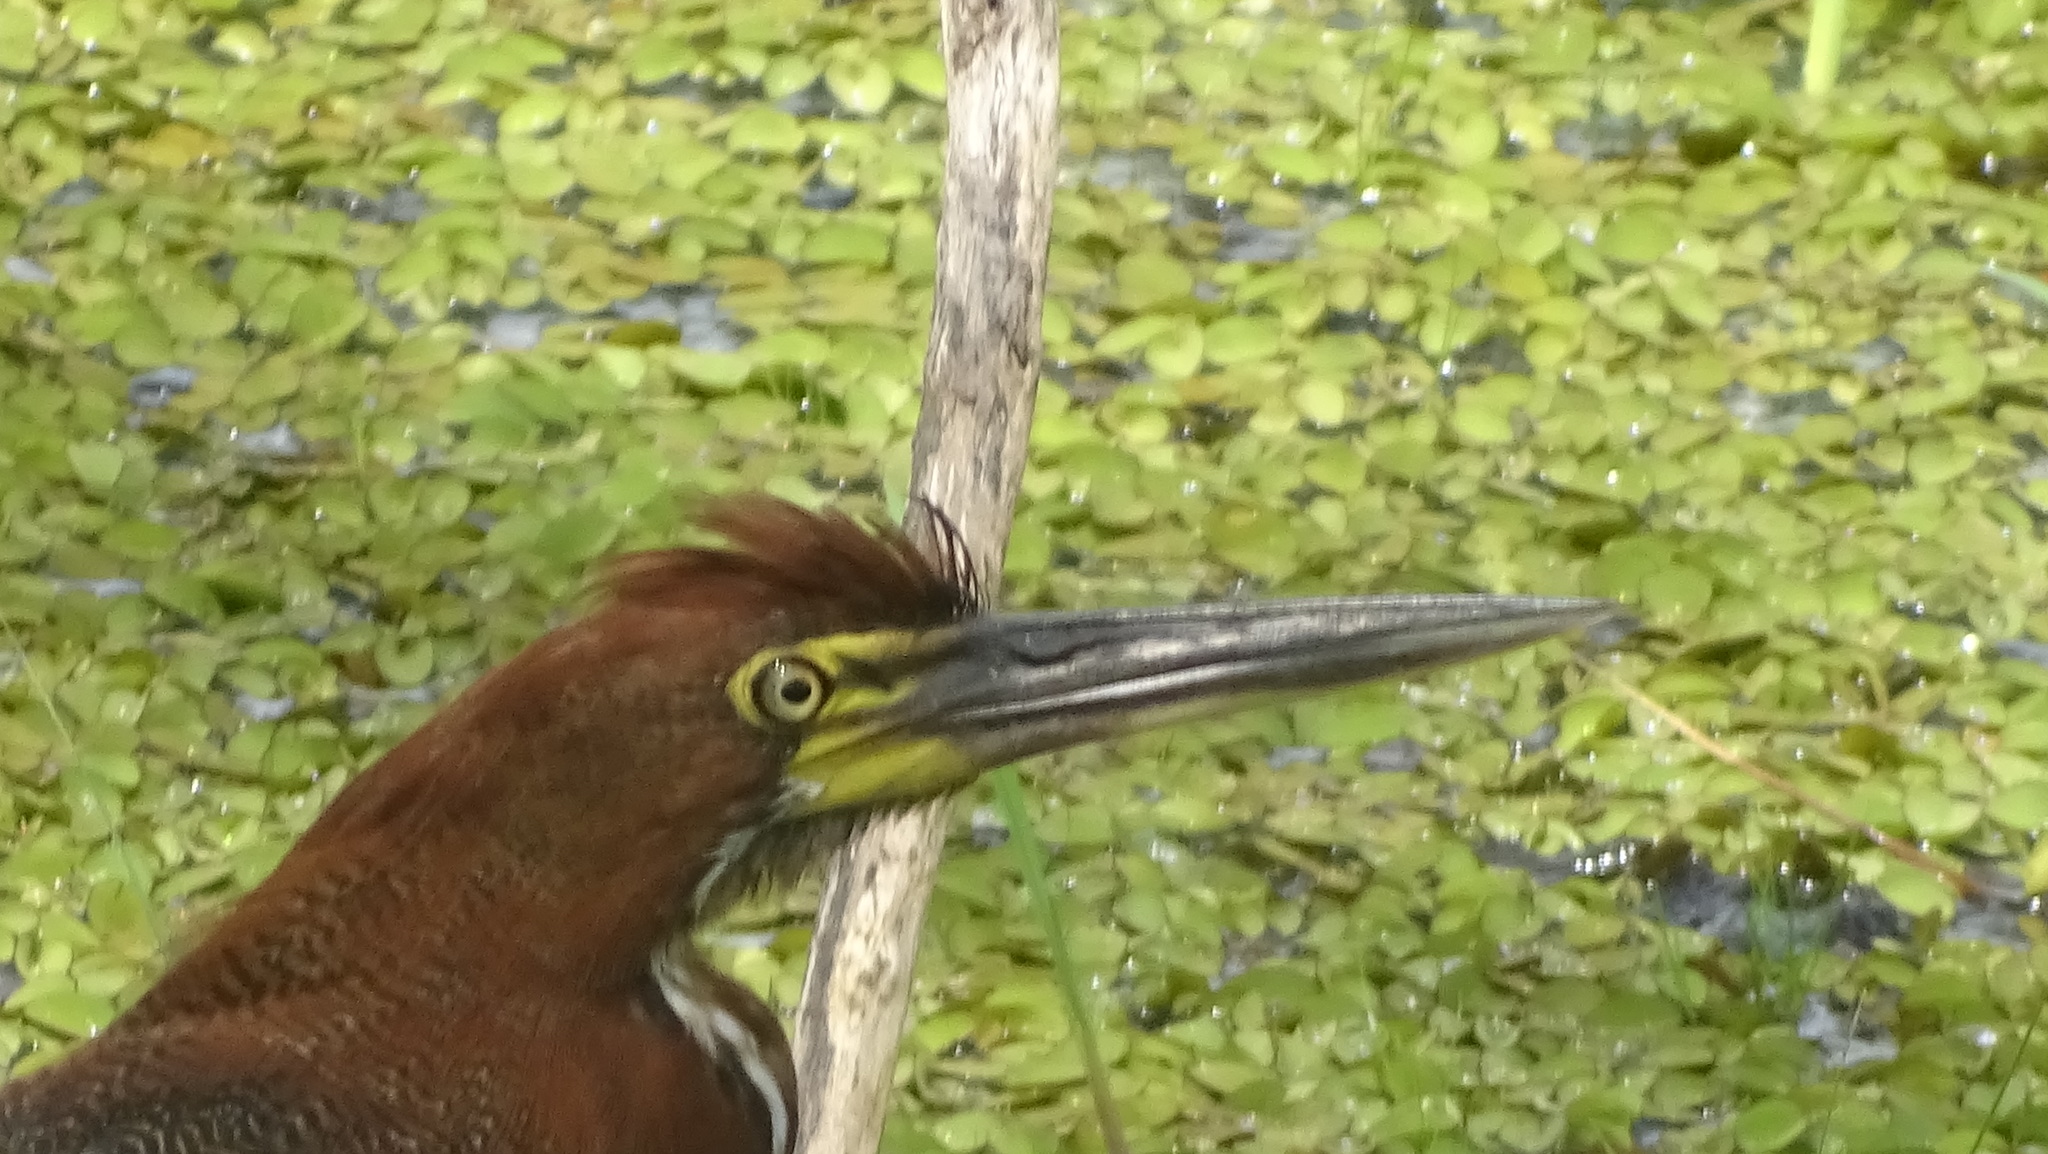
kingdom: Animalia
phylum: Chordata
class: Aves
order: Pelecaniformes
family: Ardeidae
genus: Tigrisoma
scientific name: Tigrisoma lineatum
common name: Rufescent tiger-heron
